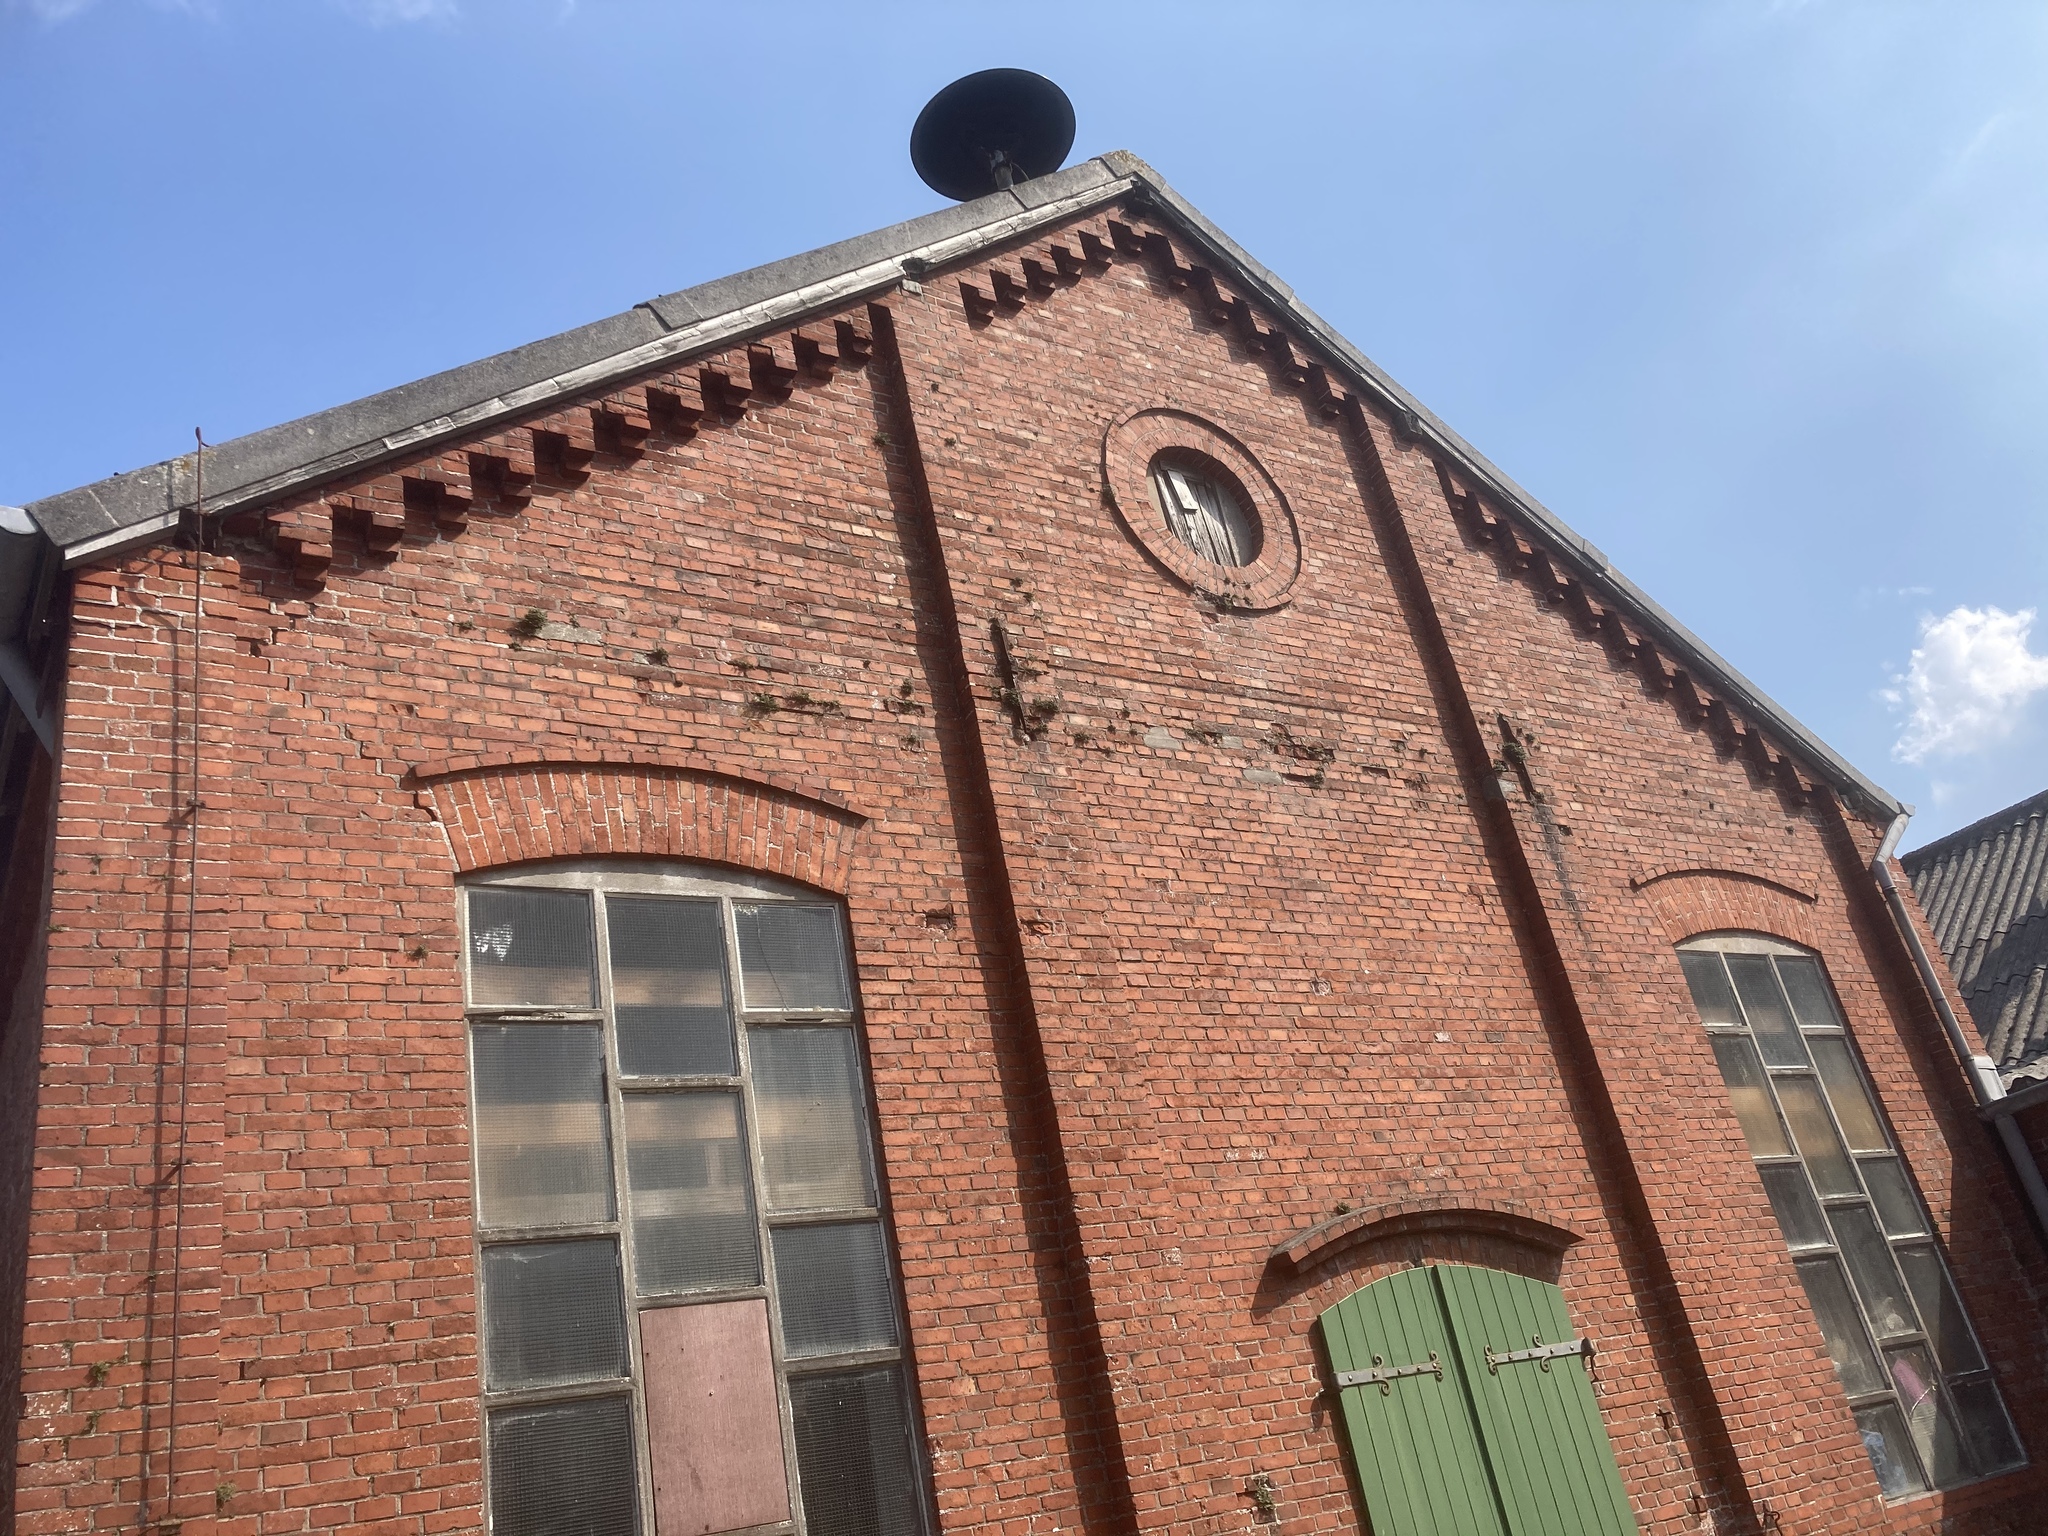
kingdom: Plantae
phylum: Tracheophyta
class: Polypodiopsida
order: Polypodiales
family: Aspleniaceae
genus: Asplenium
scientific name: Asplenium ruta-muraria
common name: Wall-rue
